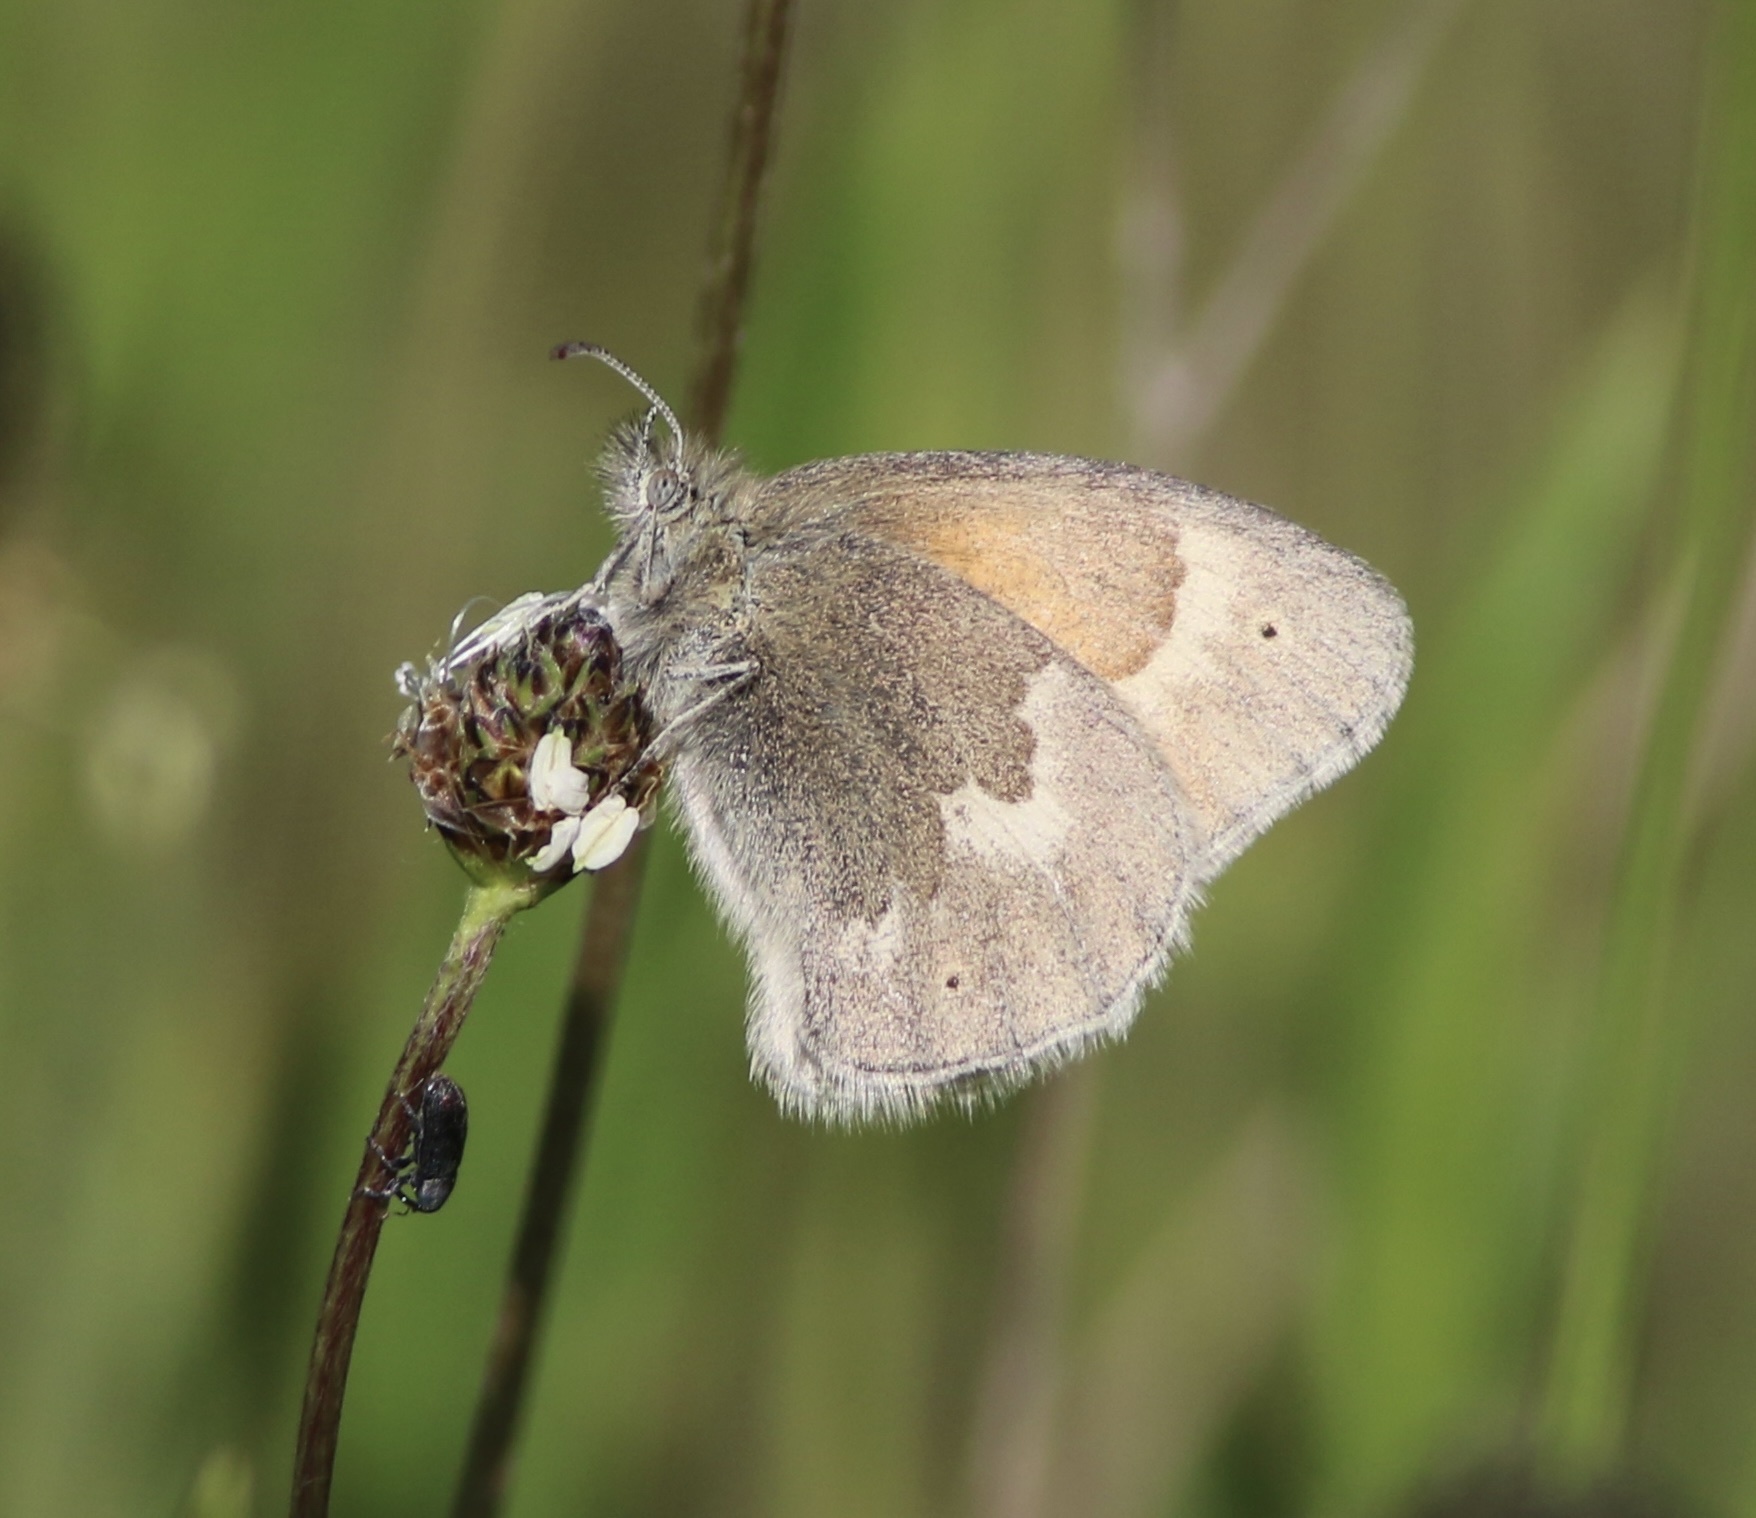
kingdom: Animalia
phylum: Arthropoda
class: Insecta
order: Lepidoptera
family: Nymphalidae
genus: Coenonympha
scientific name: Coenonympha california
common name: Common ringlet
